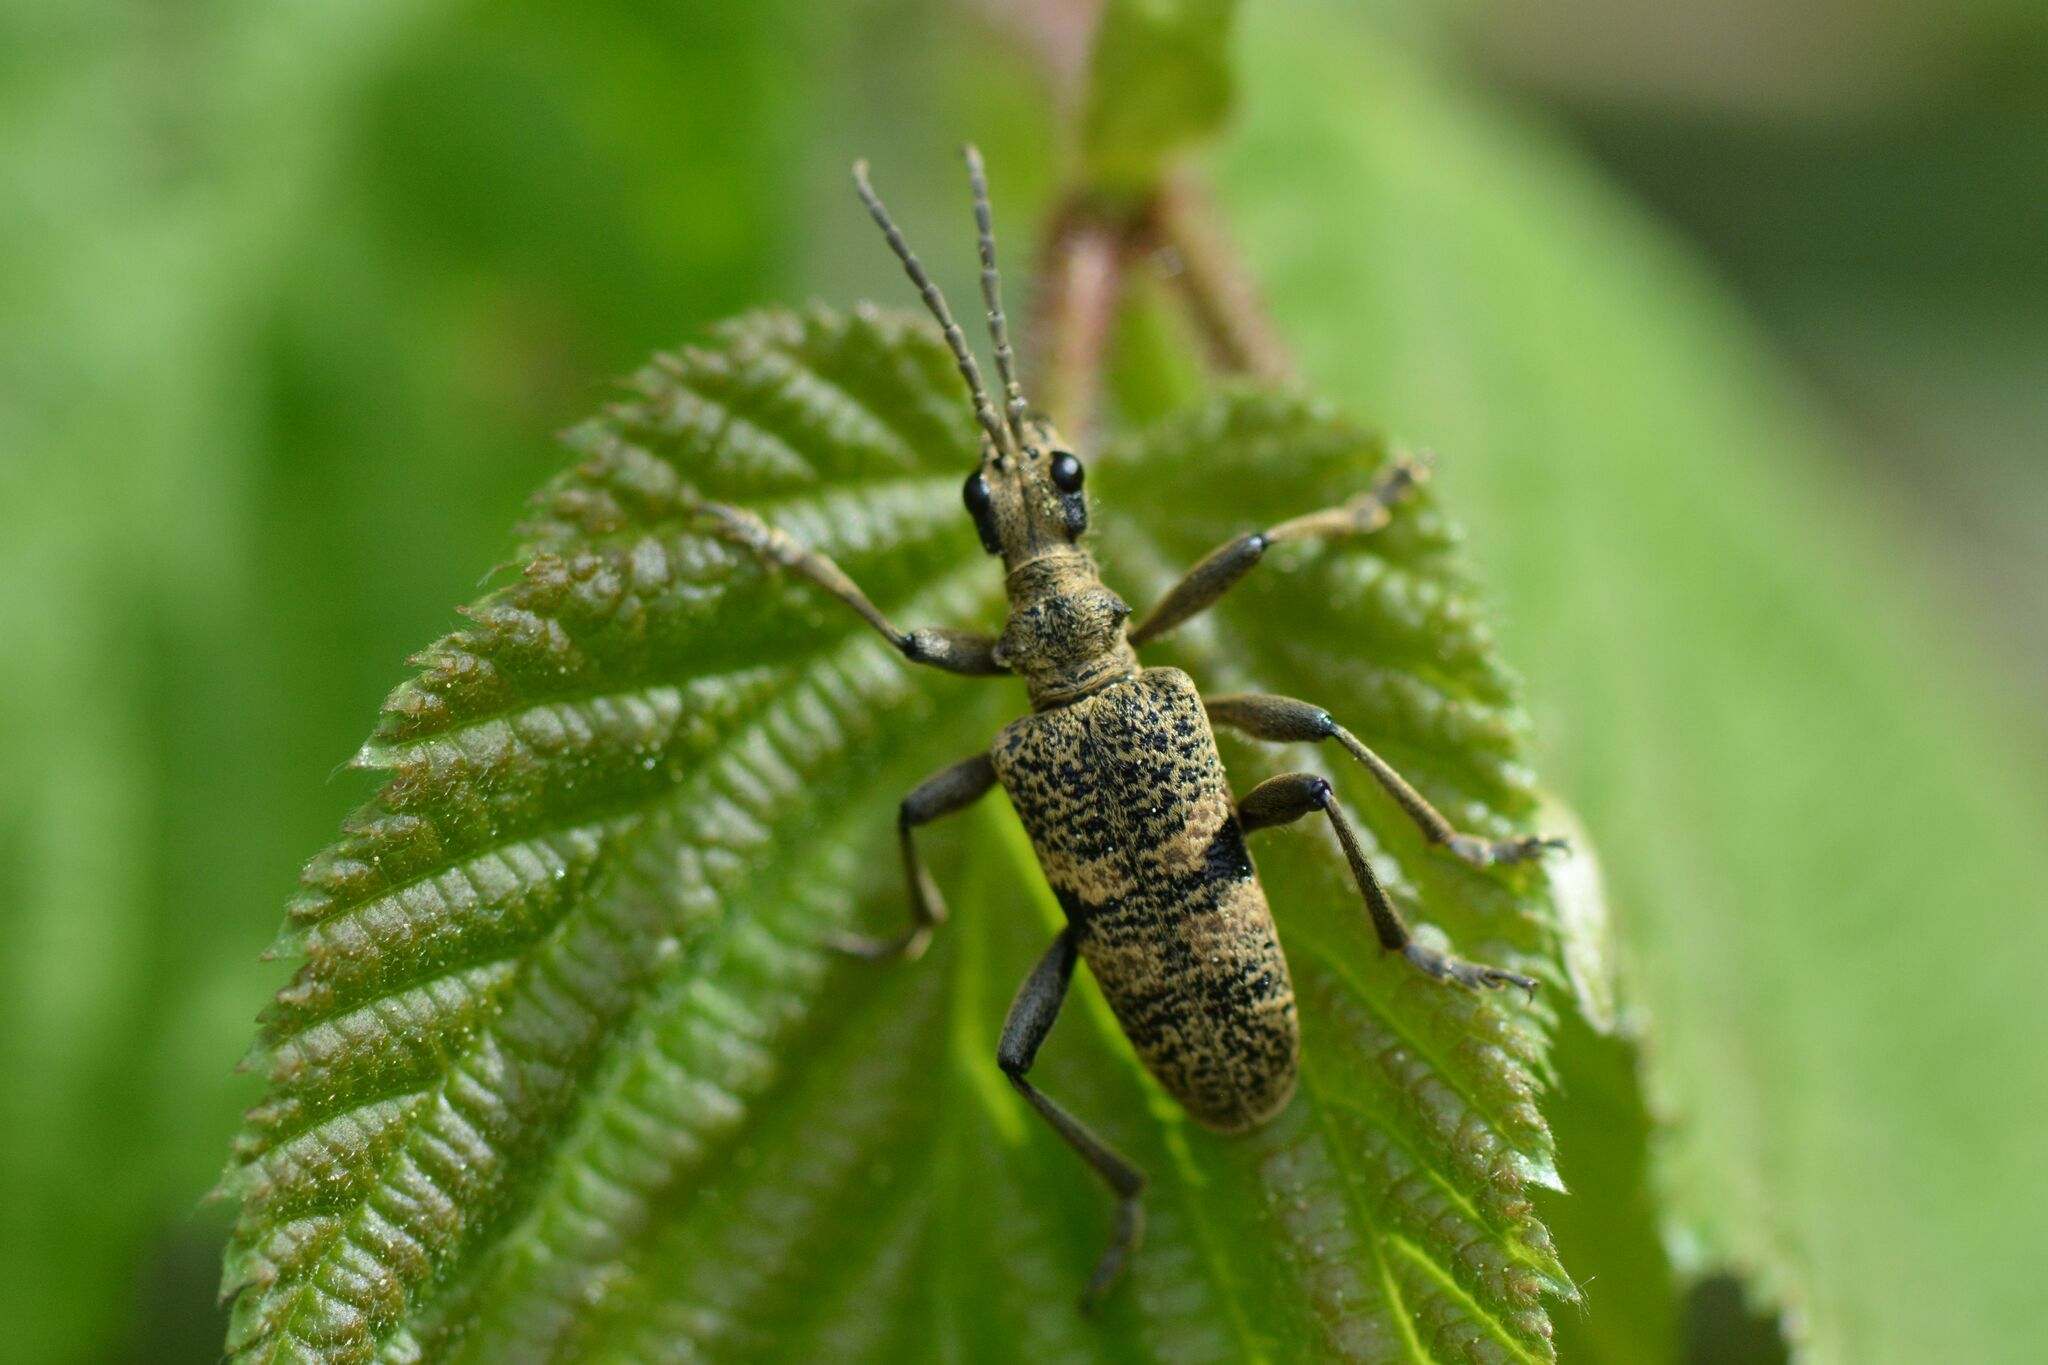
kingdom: Animalia
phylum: Arthropoda
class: Insecta
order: Coleoptera
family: Cerambycidae
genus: Rhagium
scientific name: Rhagium mordax
